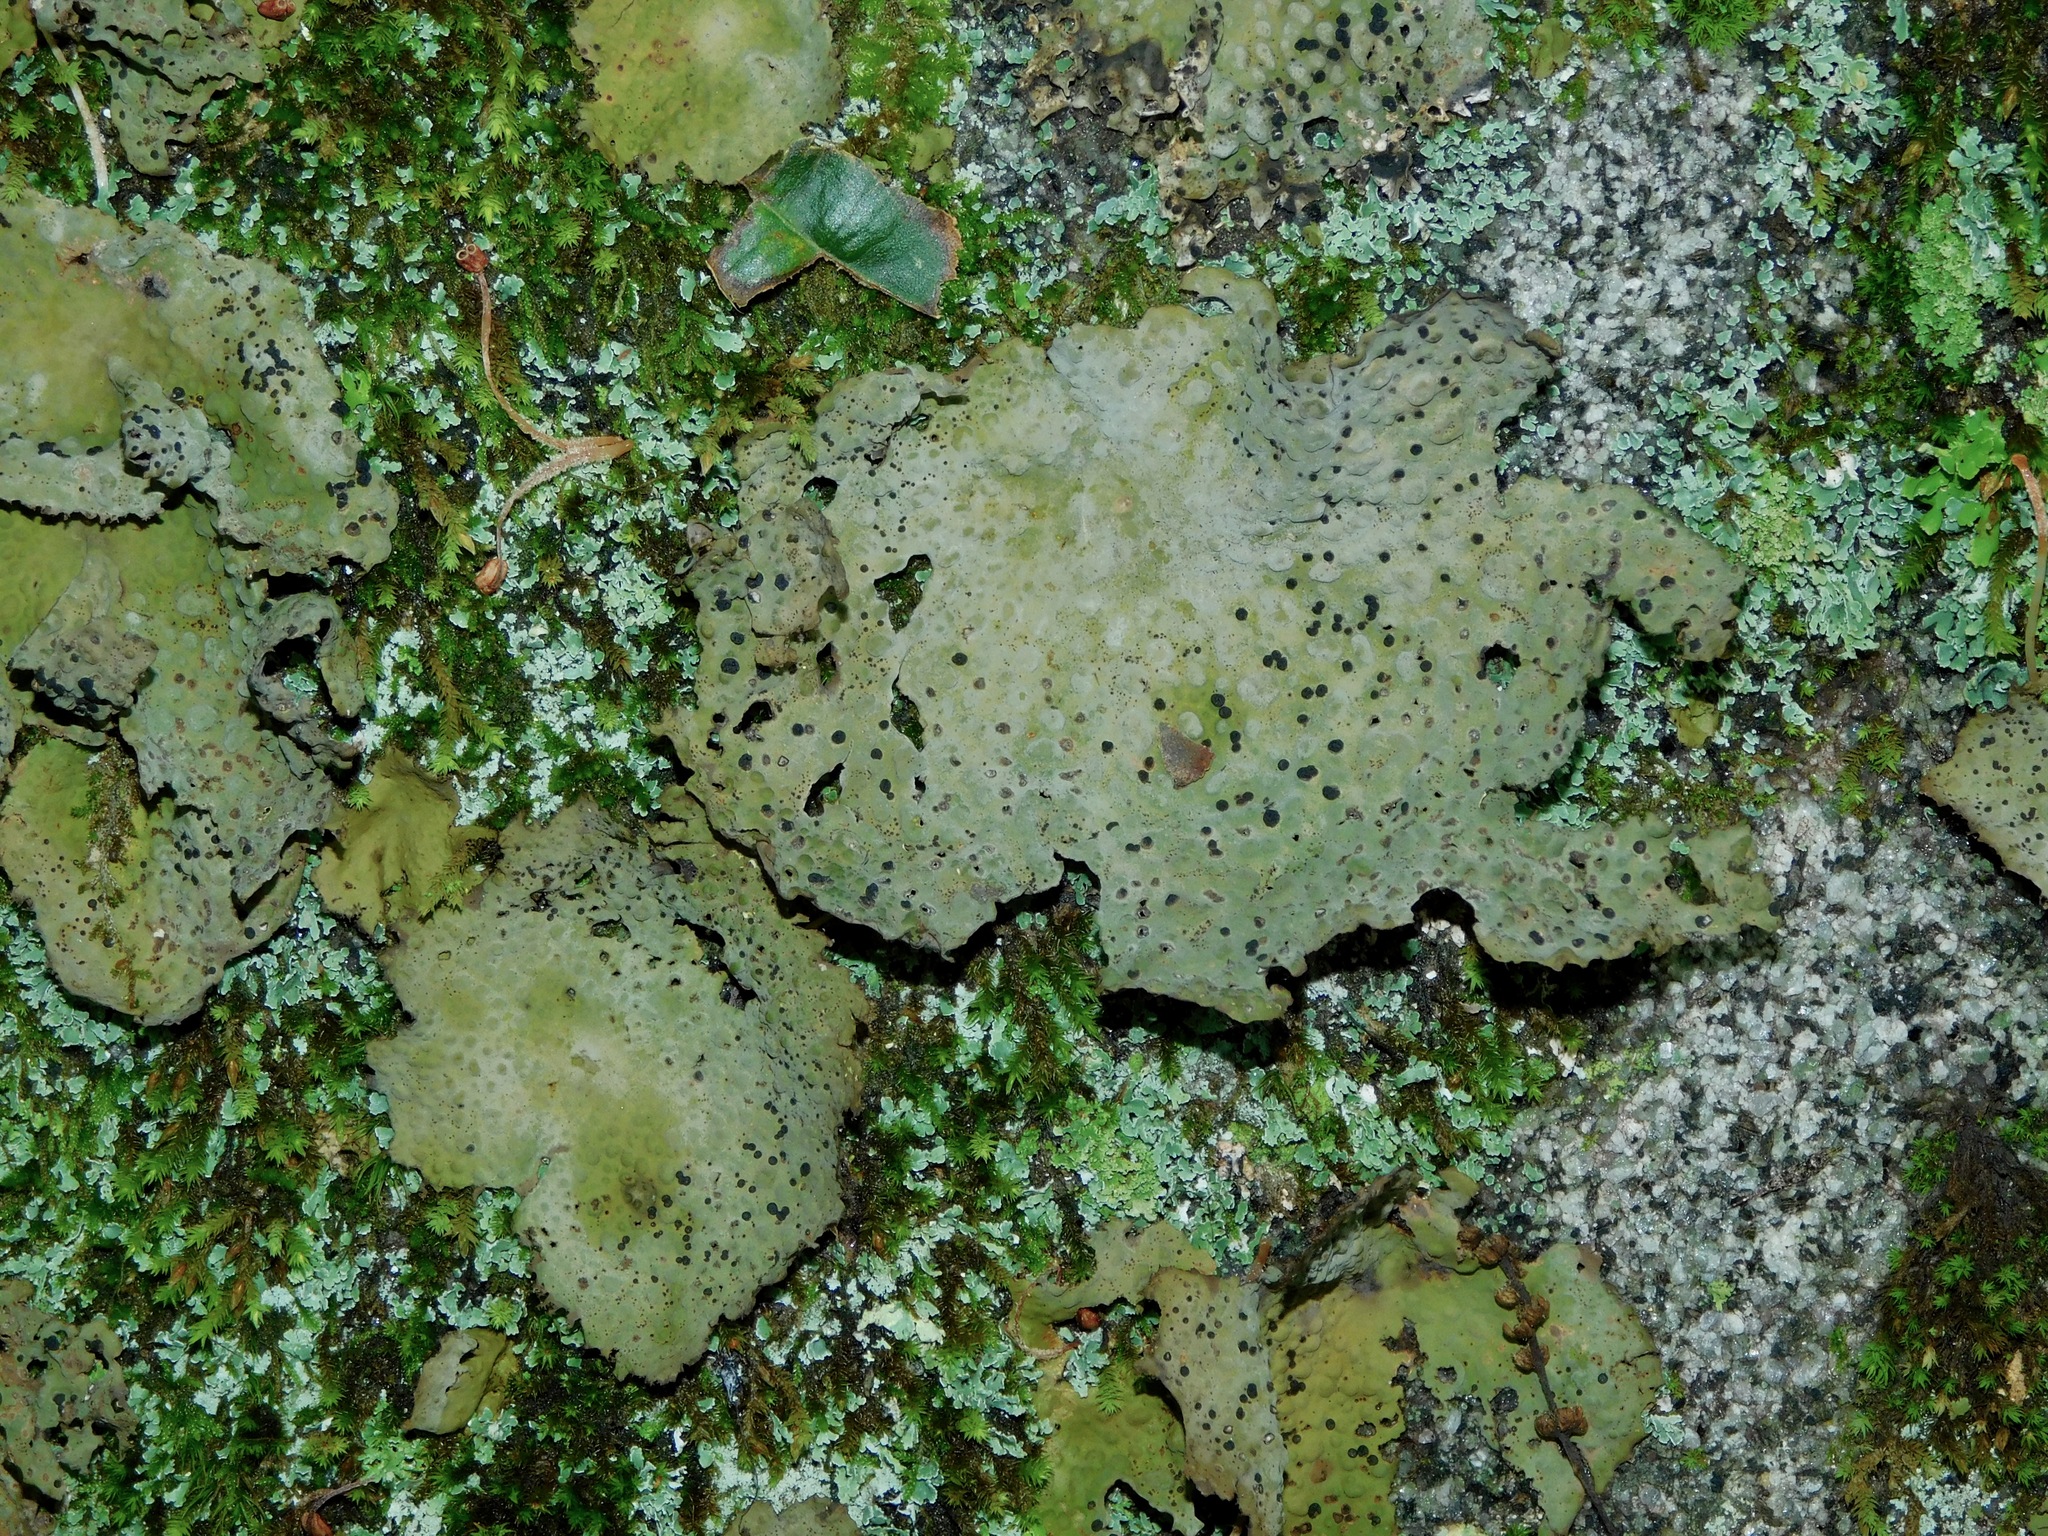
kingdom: Fungi
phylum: Ascomycota
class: Lecanoromycetes
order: Umbilicariales
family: Umbilicariaceae
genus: Lasallia
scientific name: Lasallia papulosa
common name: Common toadskin lichen
